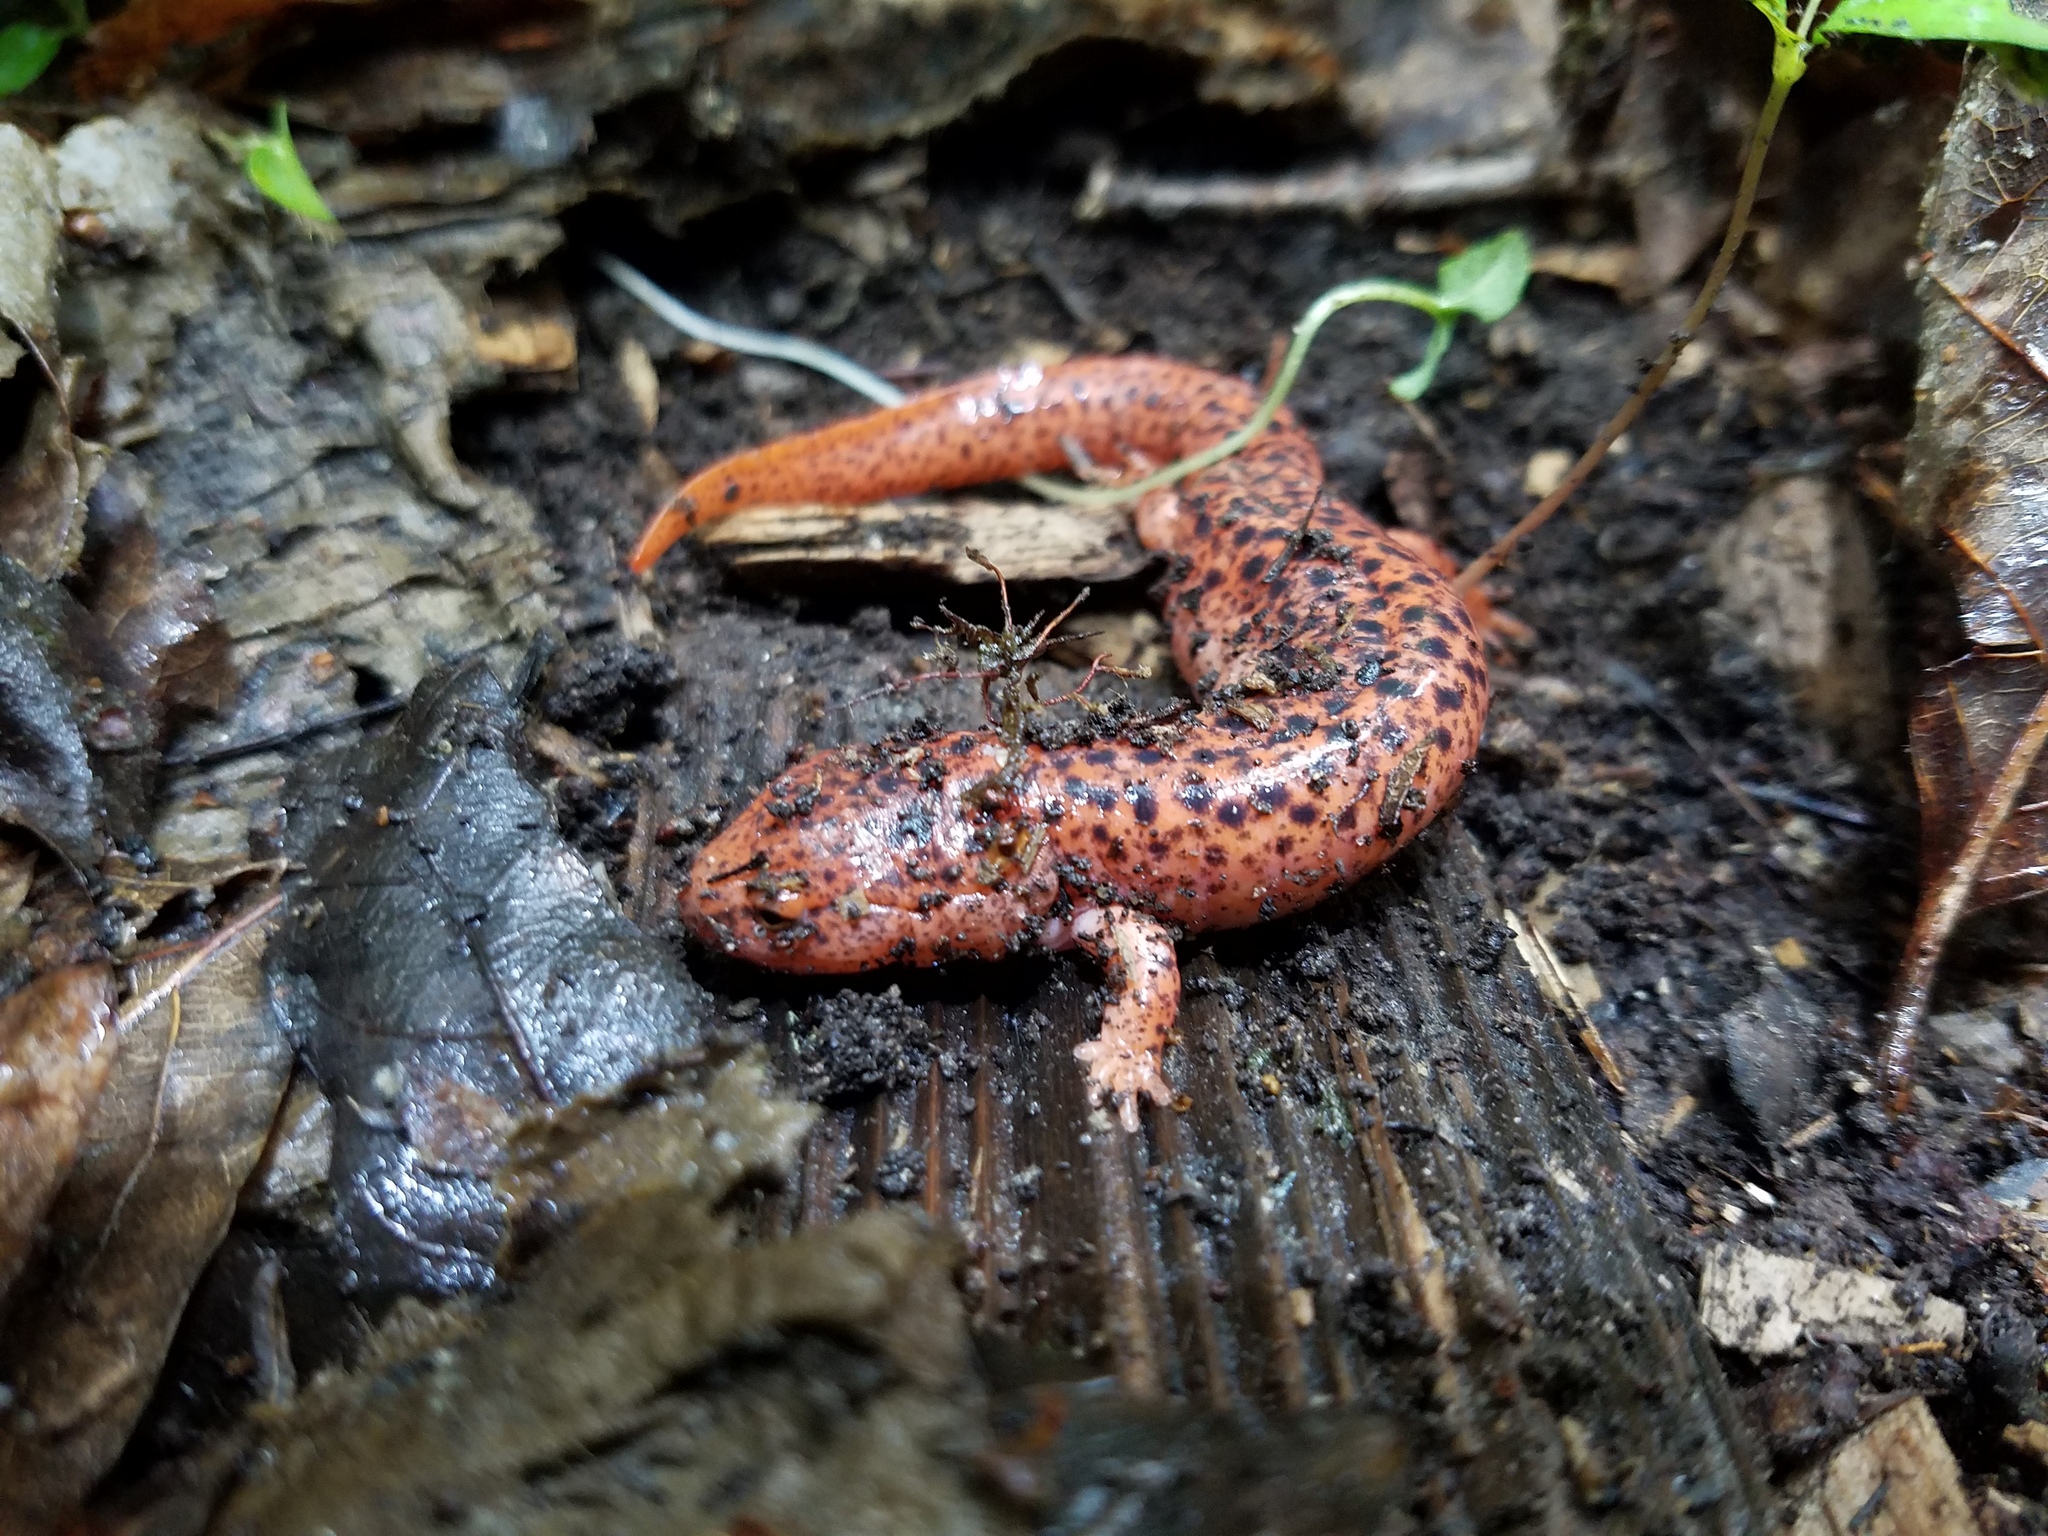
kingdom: Animalia
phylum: Chordata
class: Amphibia
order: Caudata
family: Plethodontidae
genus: Pseudotriton
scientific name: Pseudotriton ruber
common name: Red salamander
